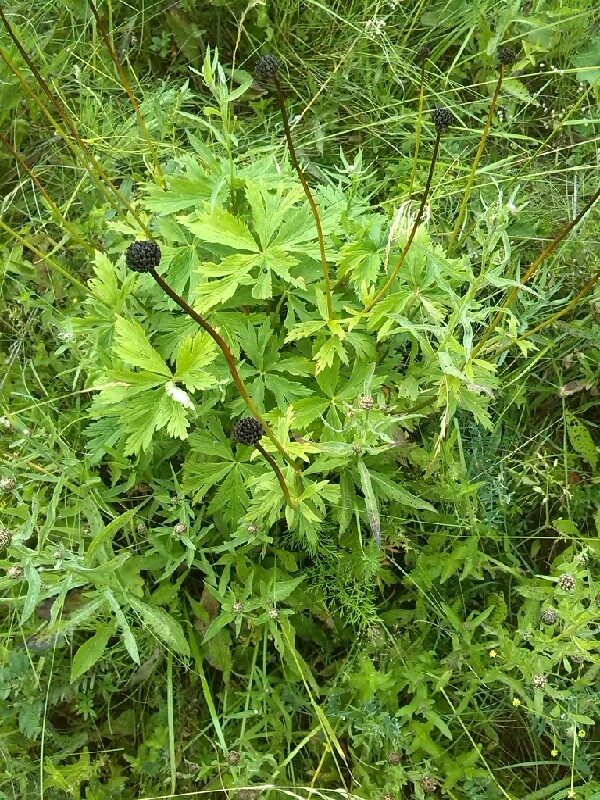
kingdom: Plantae
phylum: Tracheophyta
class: Magnoliopsida
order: Ranunculales
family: Ranunculaceae
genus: Trollius
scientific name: Trollius europaeus
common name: European globeflower
